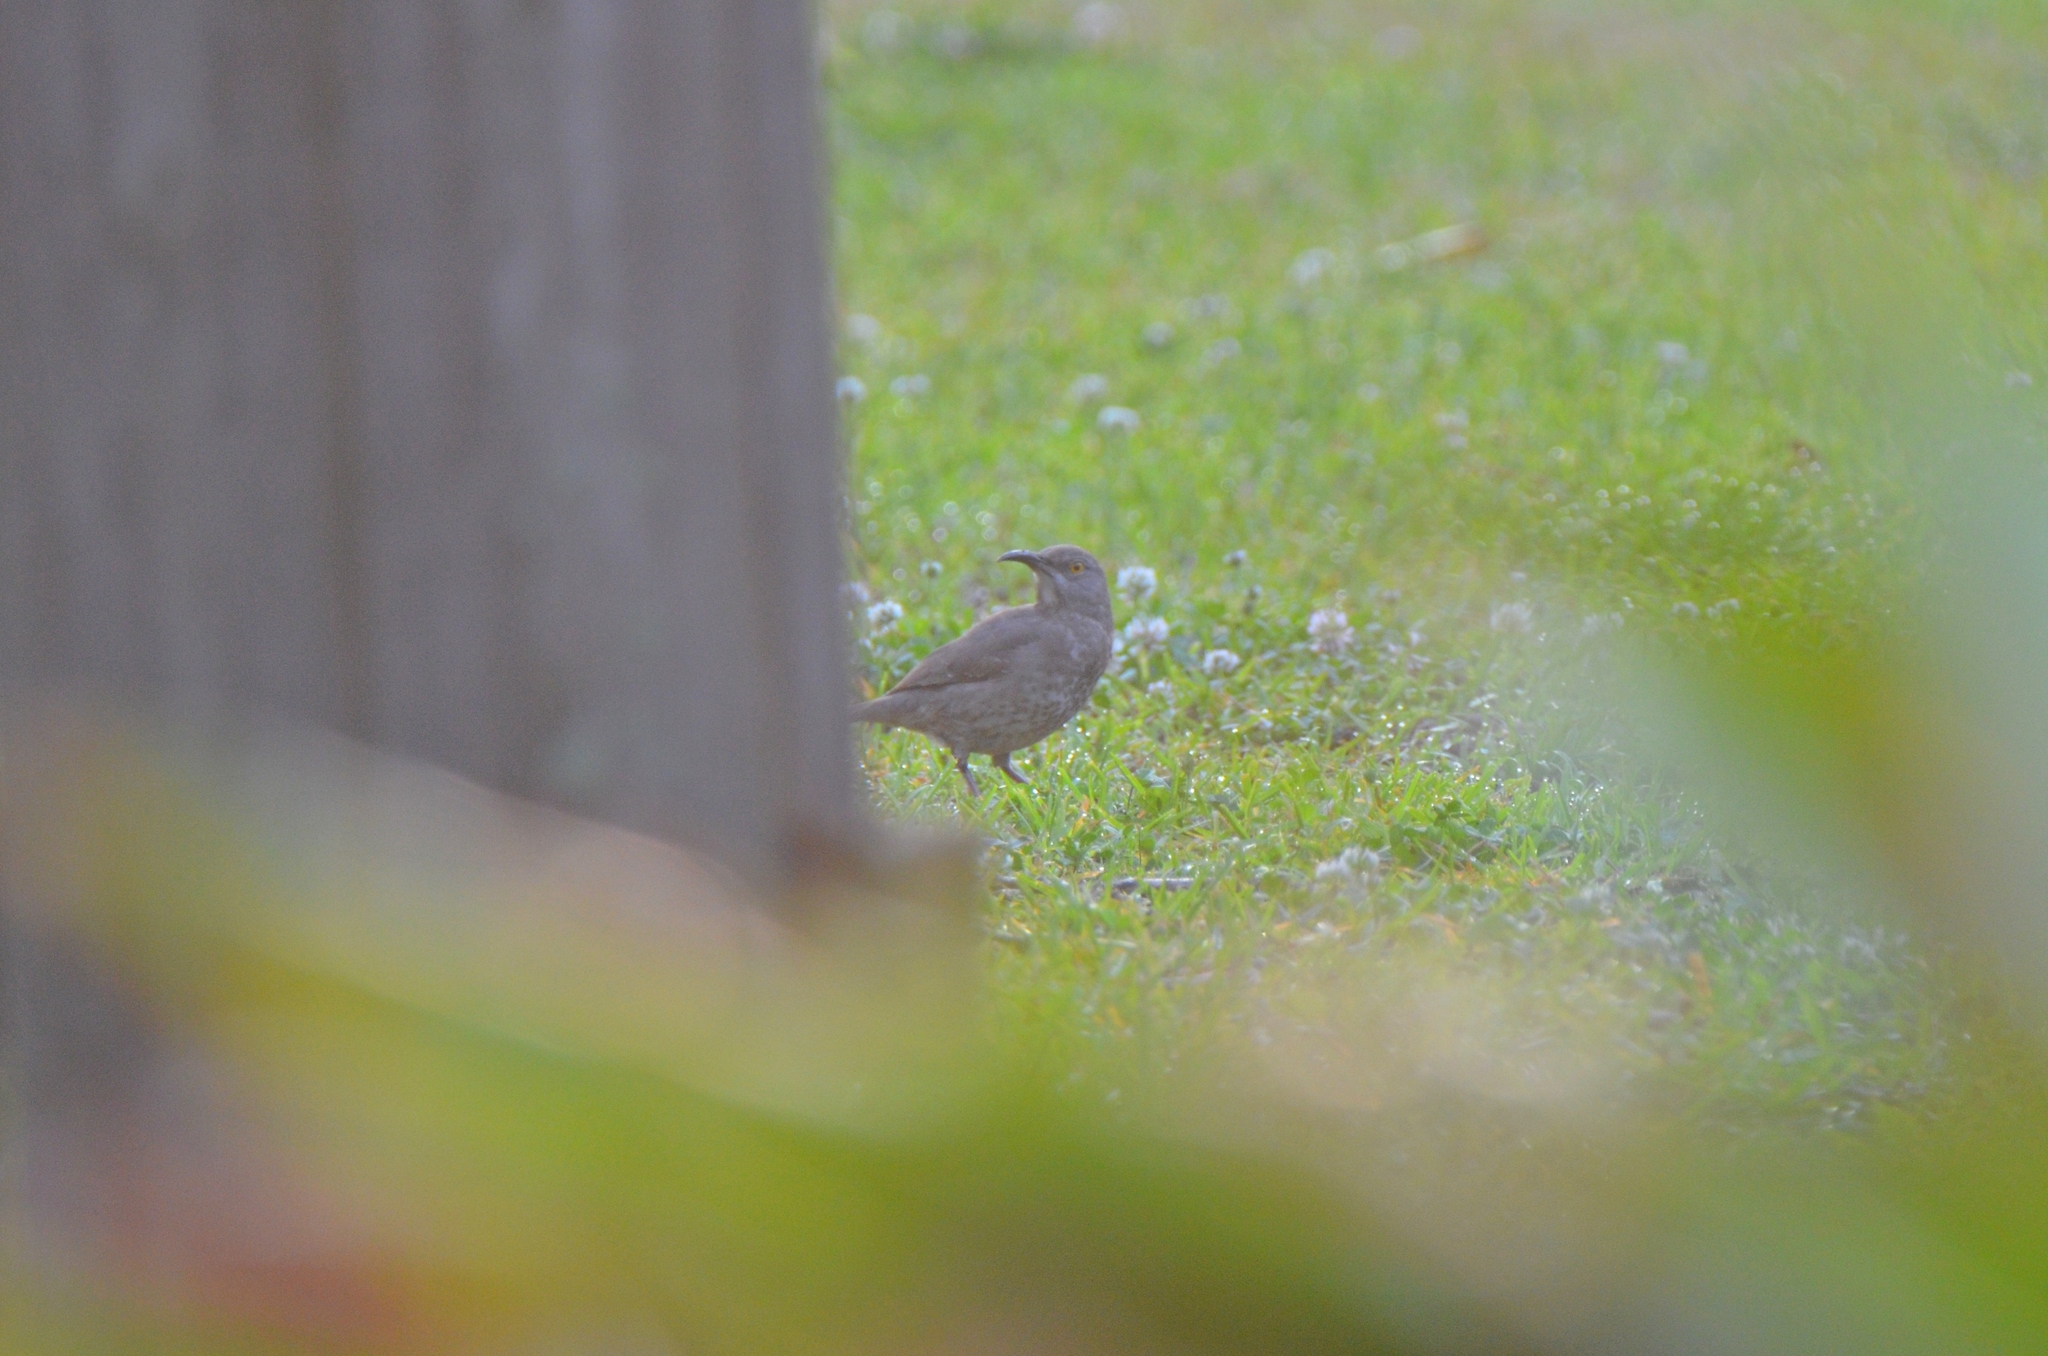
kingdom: Animalia
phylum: Chordata
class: Aves
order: Passeriformes
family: Mimidae
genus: Toxostoma
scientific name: Toxostoma curvirostre
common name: Curve-billed thrasher
